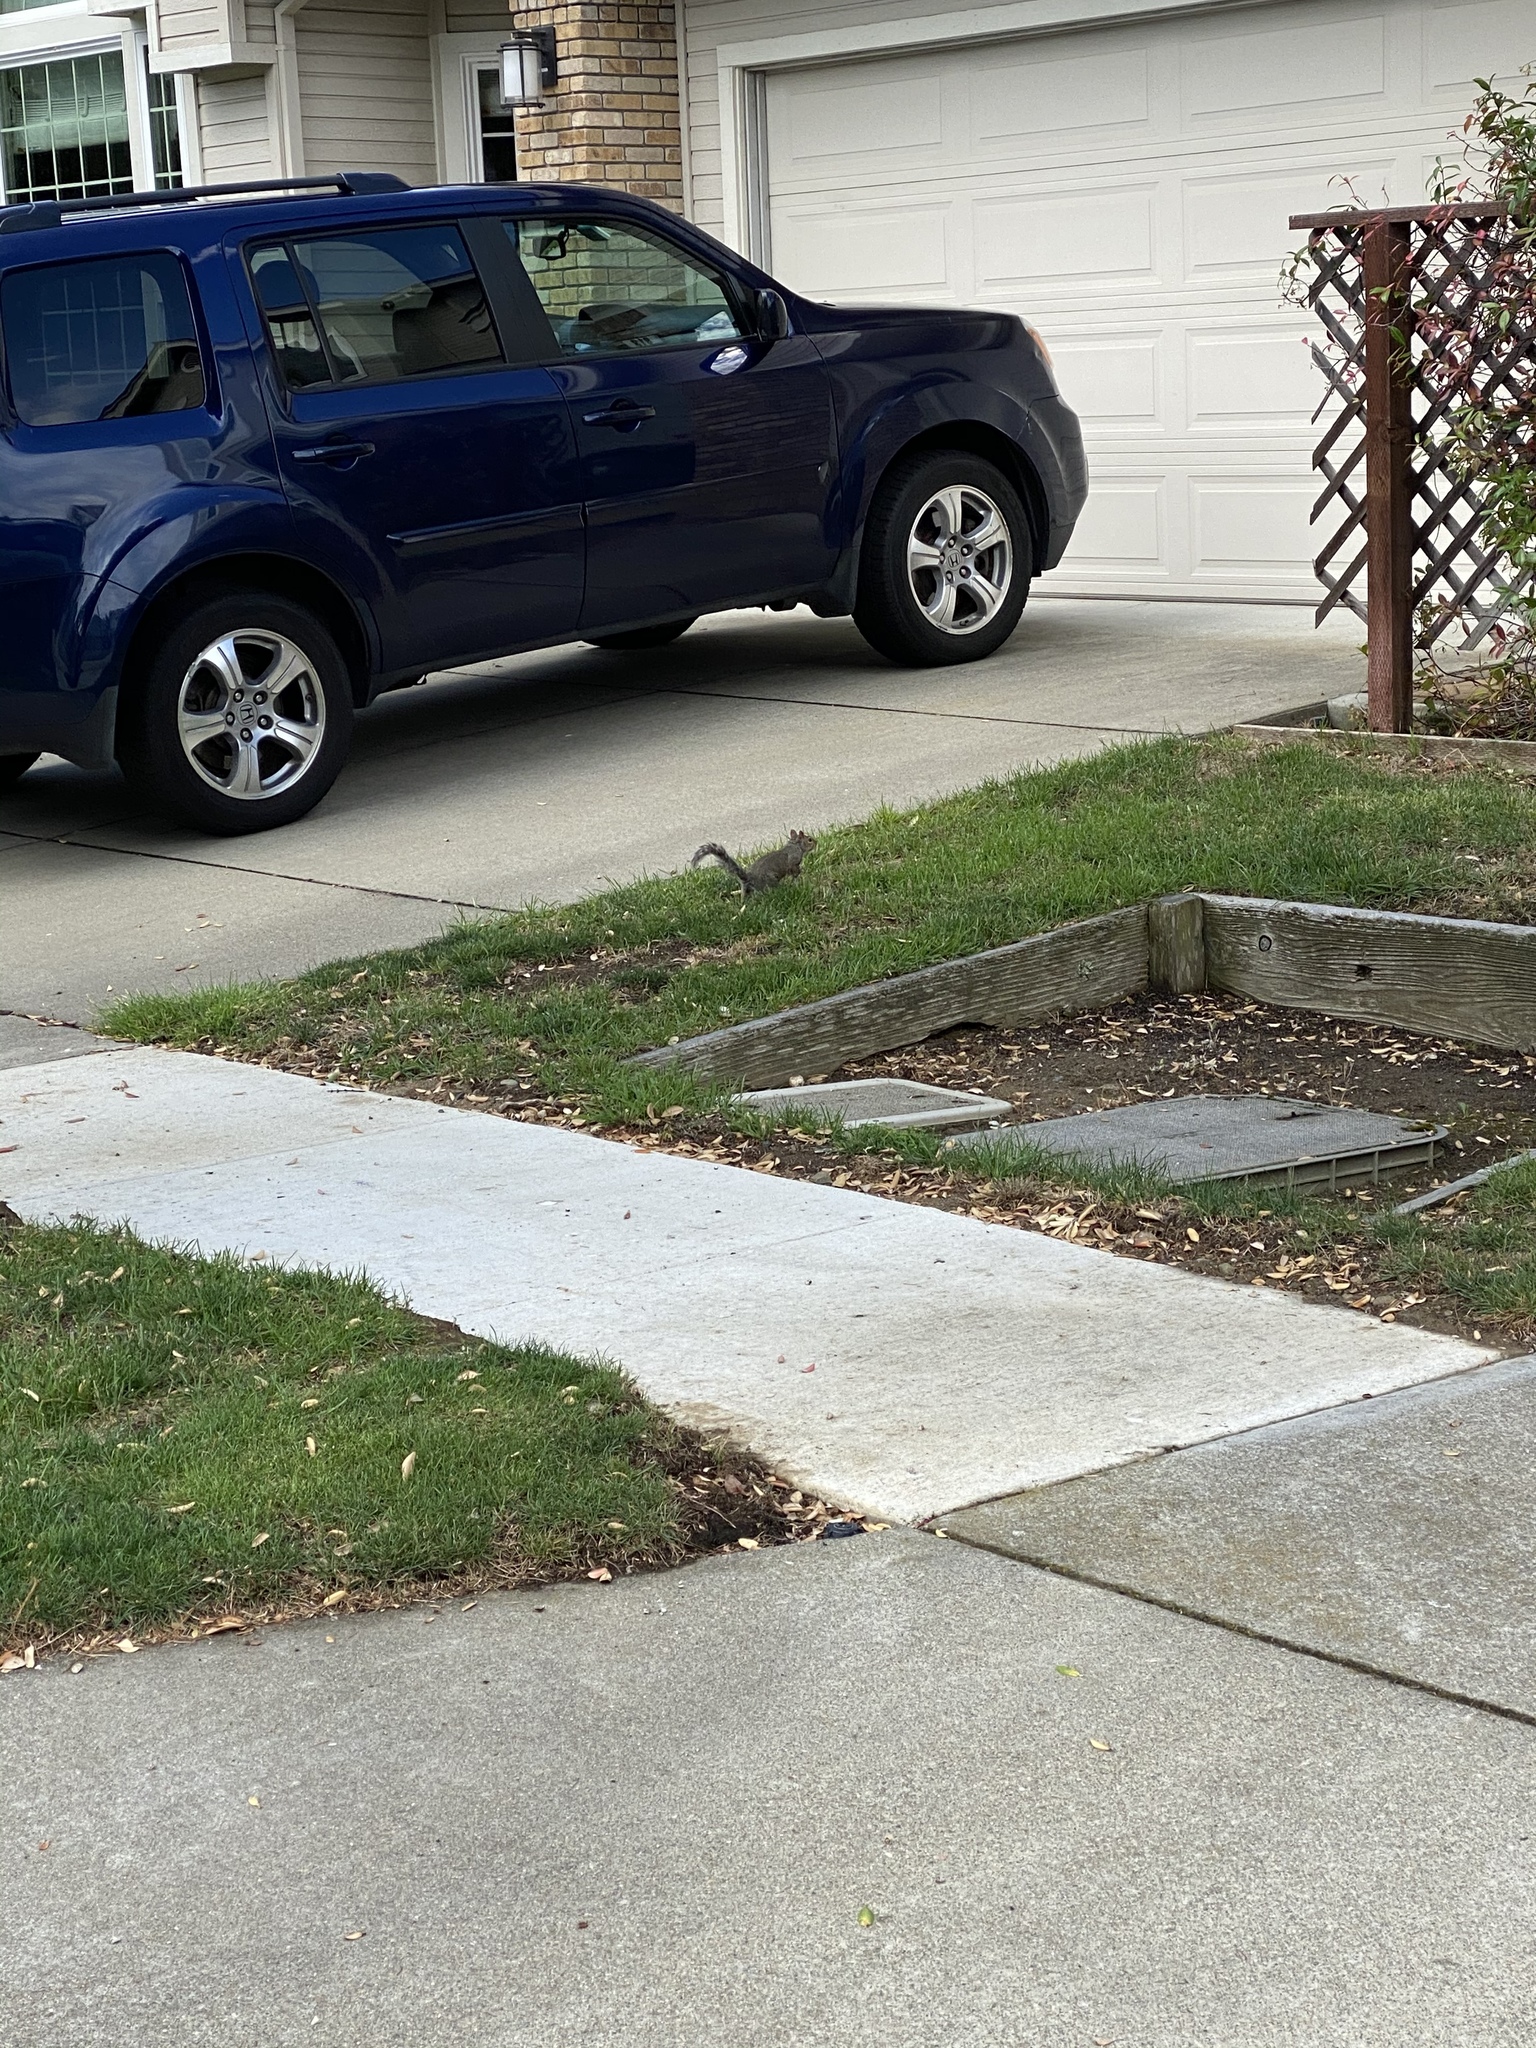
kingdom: Animalia
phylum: Chordata
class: Mammalia
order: Rodentia
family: Sciuridae
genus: Sciurus
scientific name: Sciurus carolinensis
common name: Eastern gray squirrel
